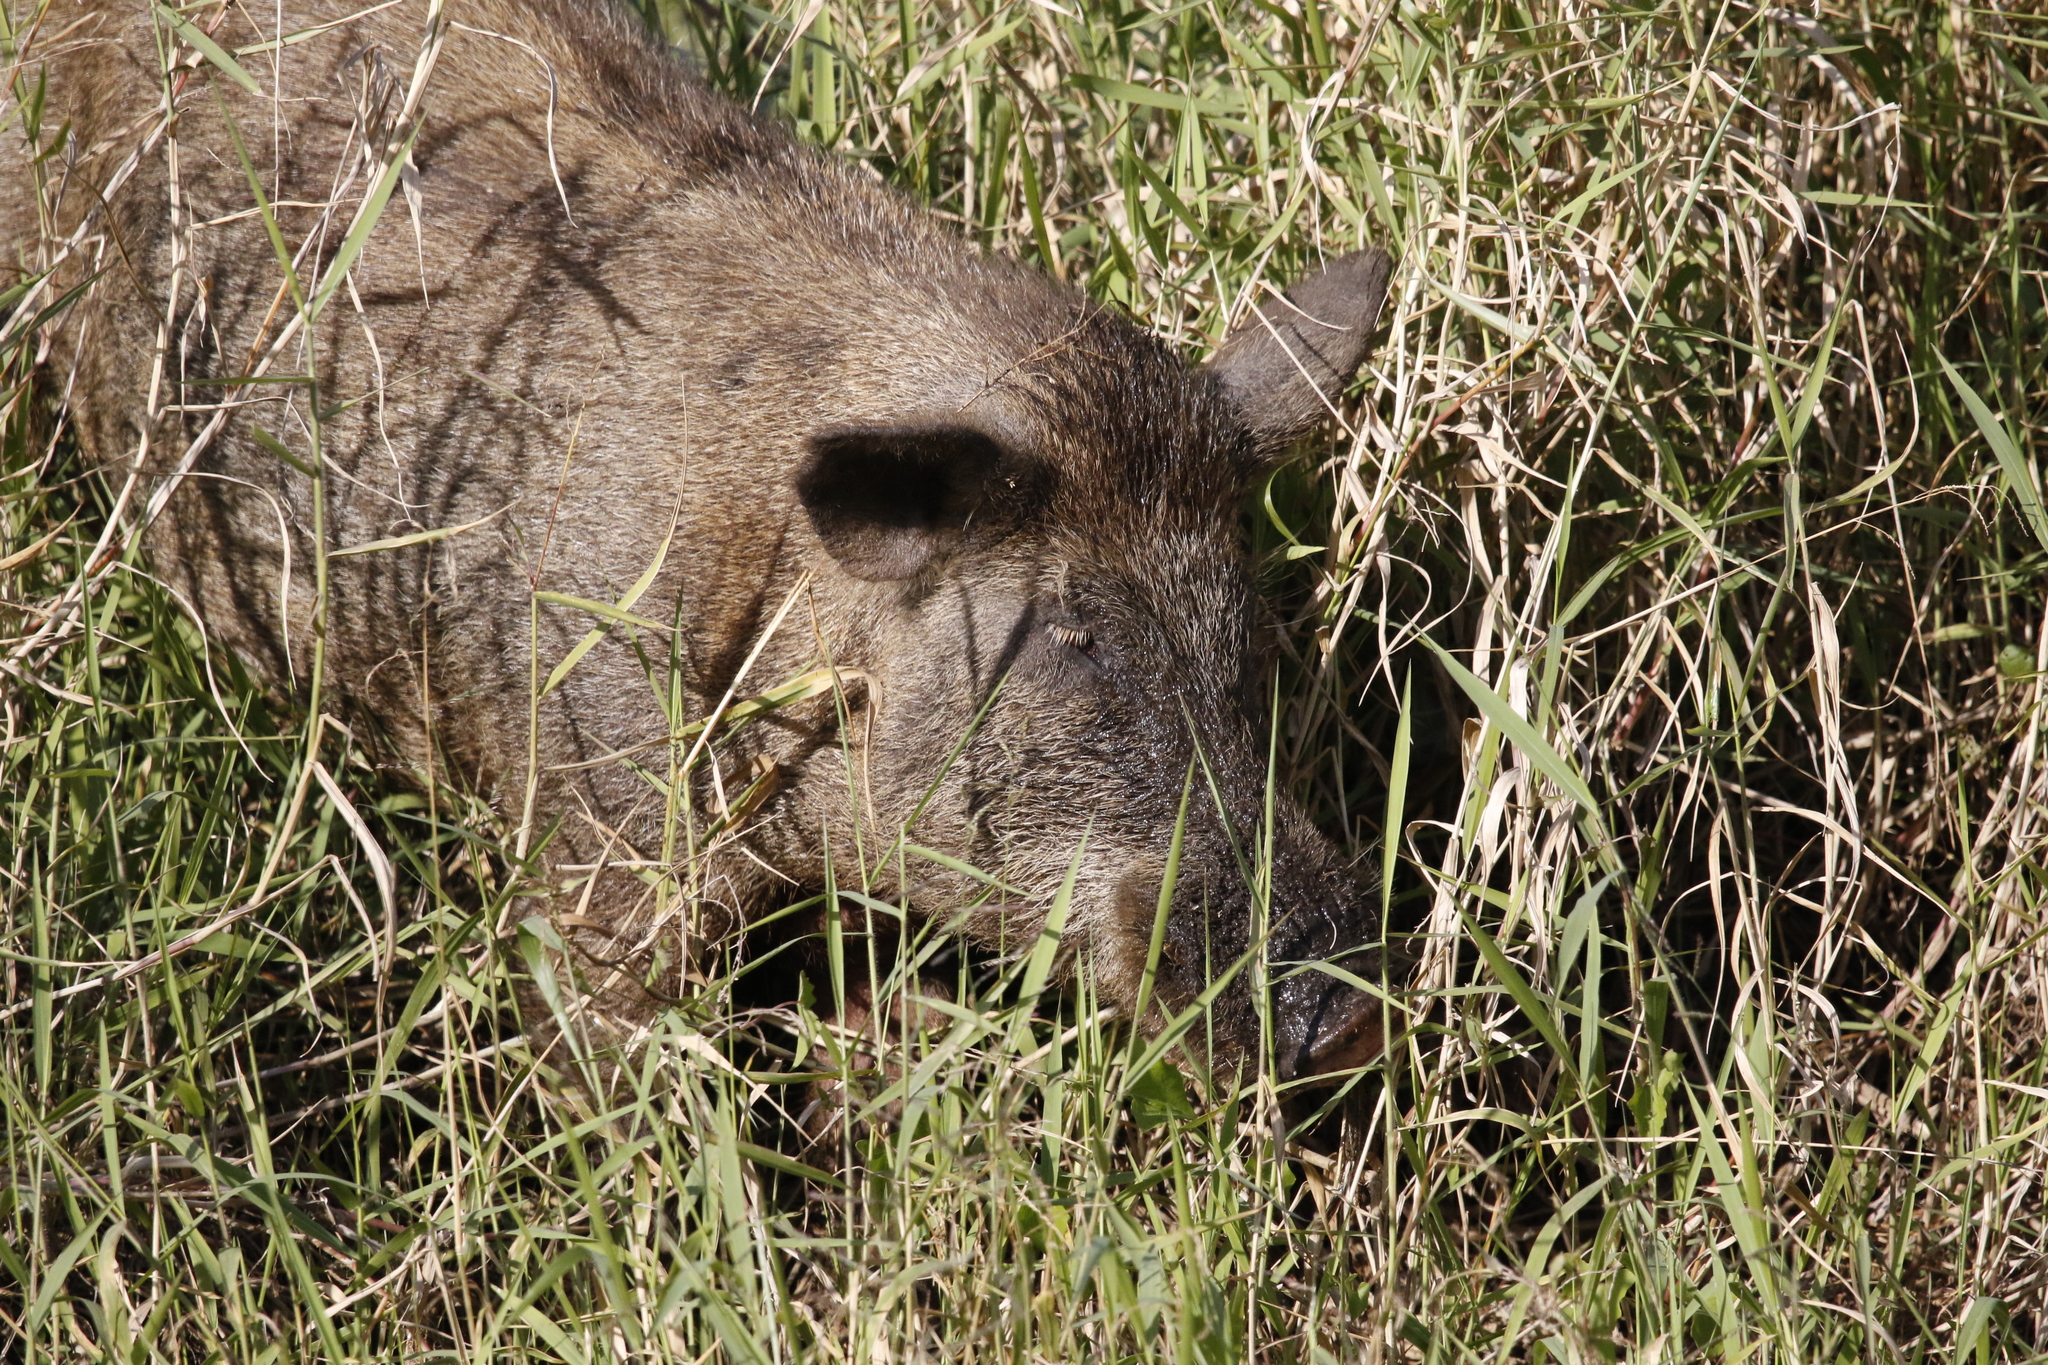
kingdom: Animalia
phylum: Chordata
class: Mammalia
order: Artiodactyla
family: Suidae
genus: Sus
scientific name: Sus scrofa
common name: Wild boar
